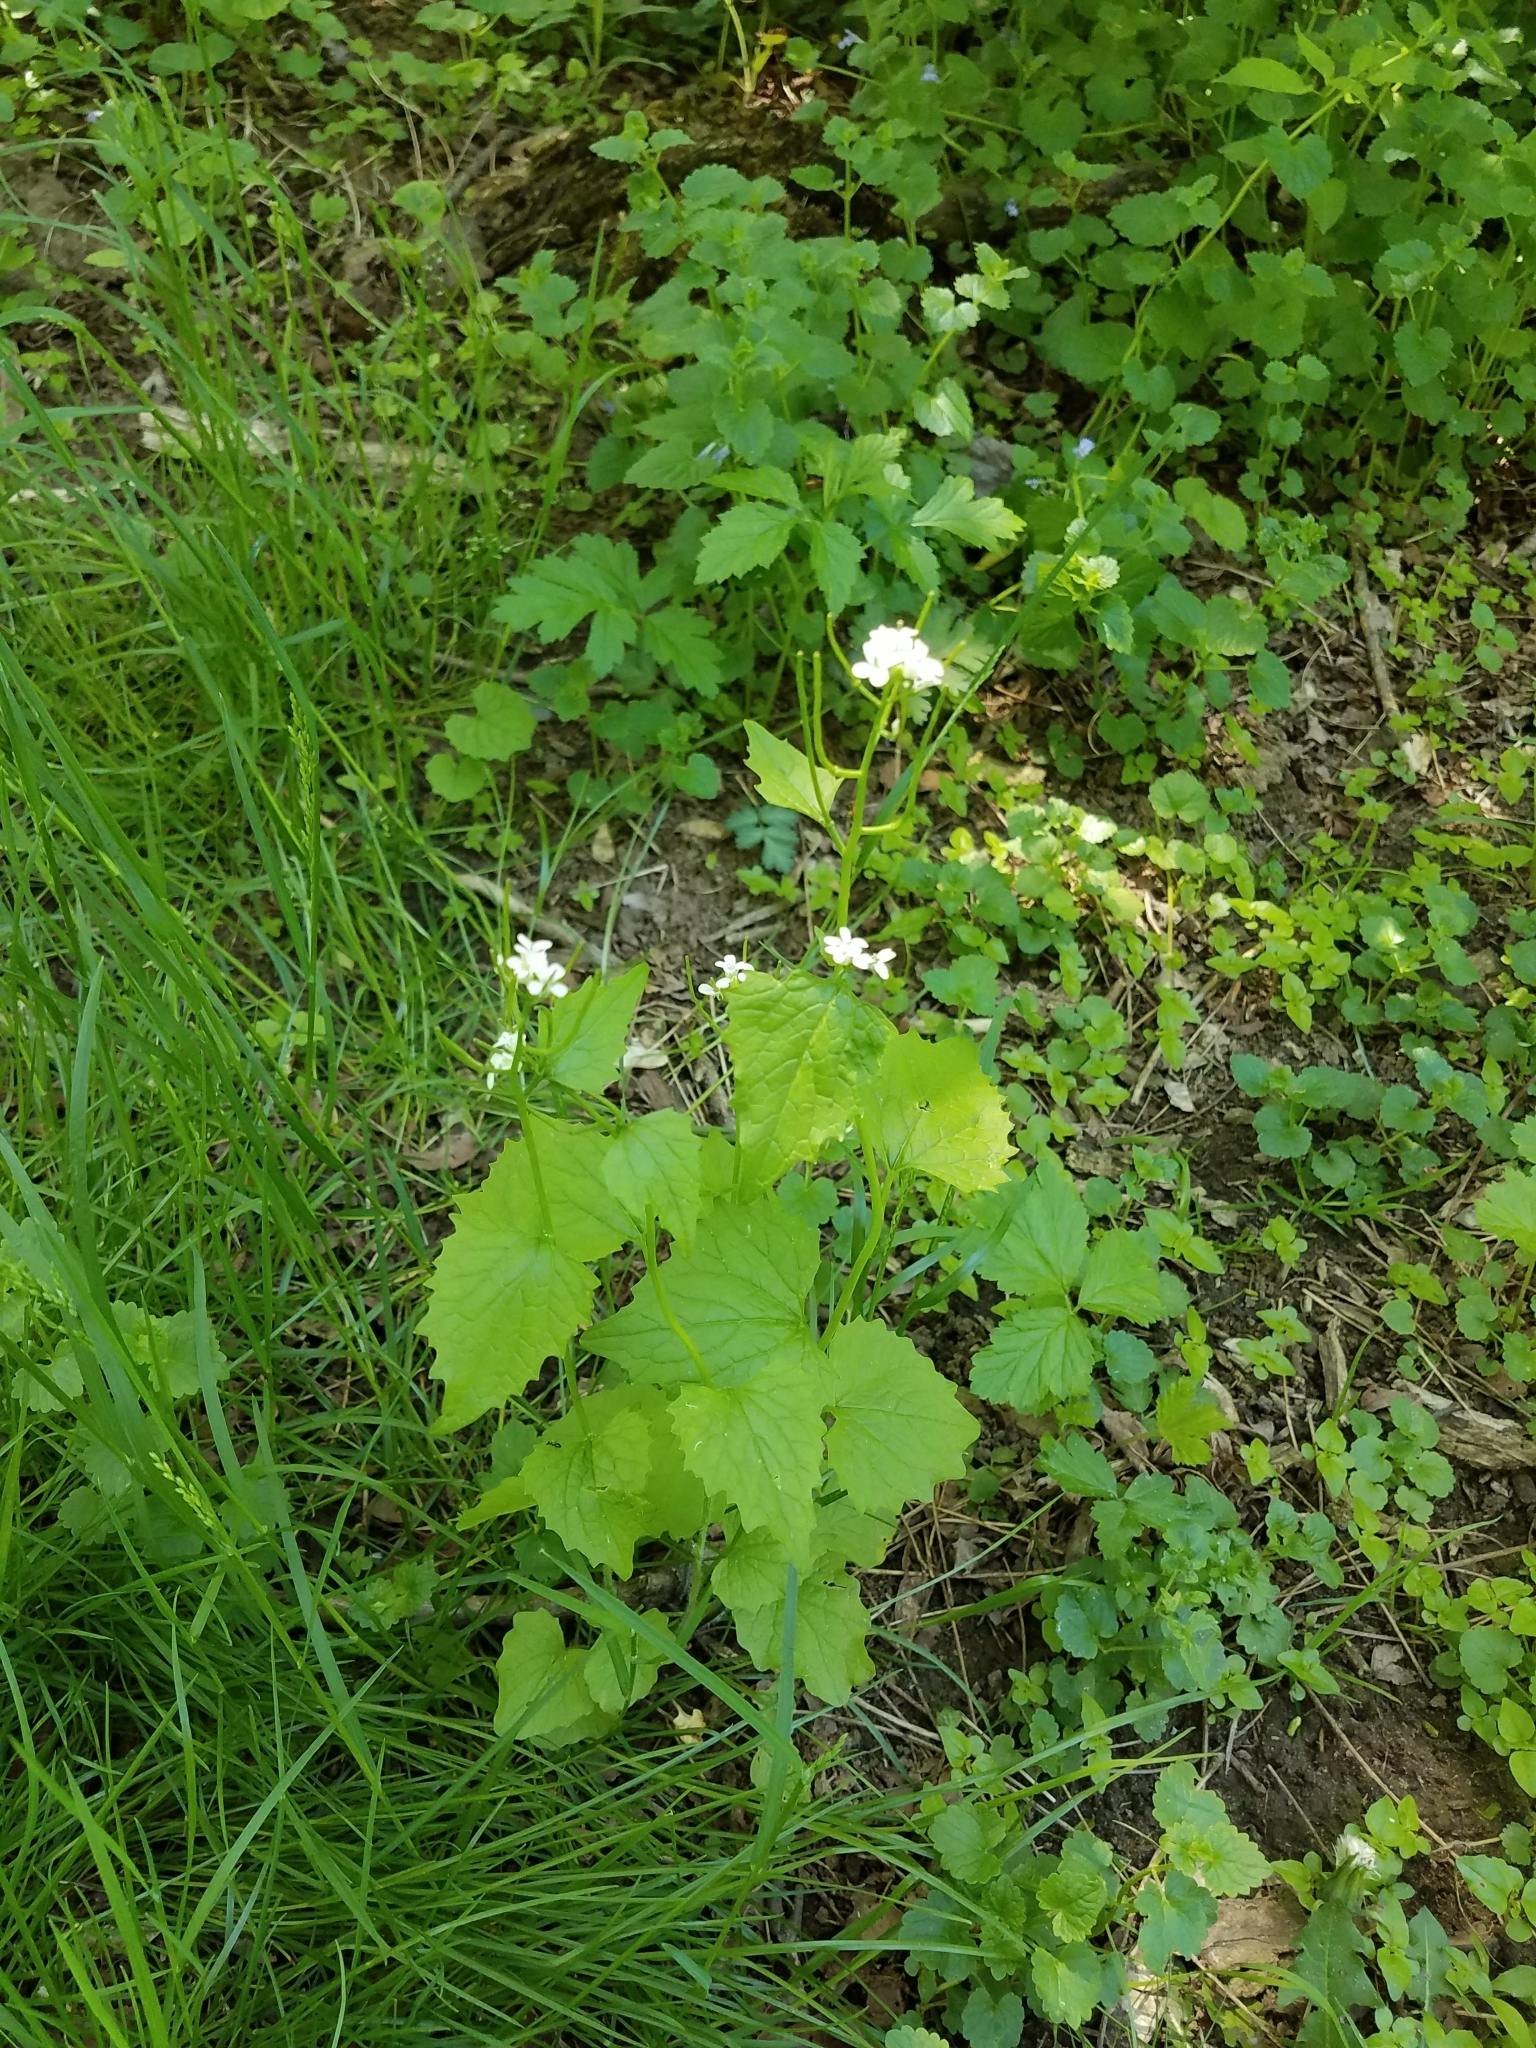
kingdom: Plantae
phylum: Tracheophyta
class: Magnoliopsida
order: Brassicales
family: Brassicaceae
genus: Alliaria
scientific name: Alliaria petiolata
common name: Garlic mustard
